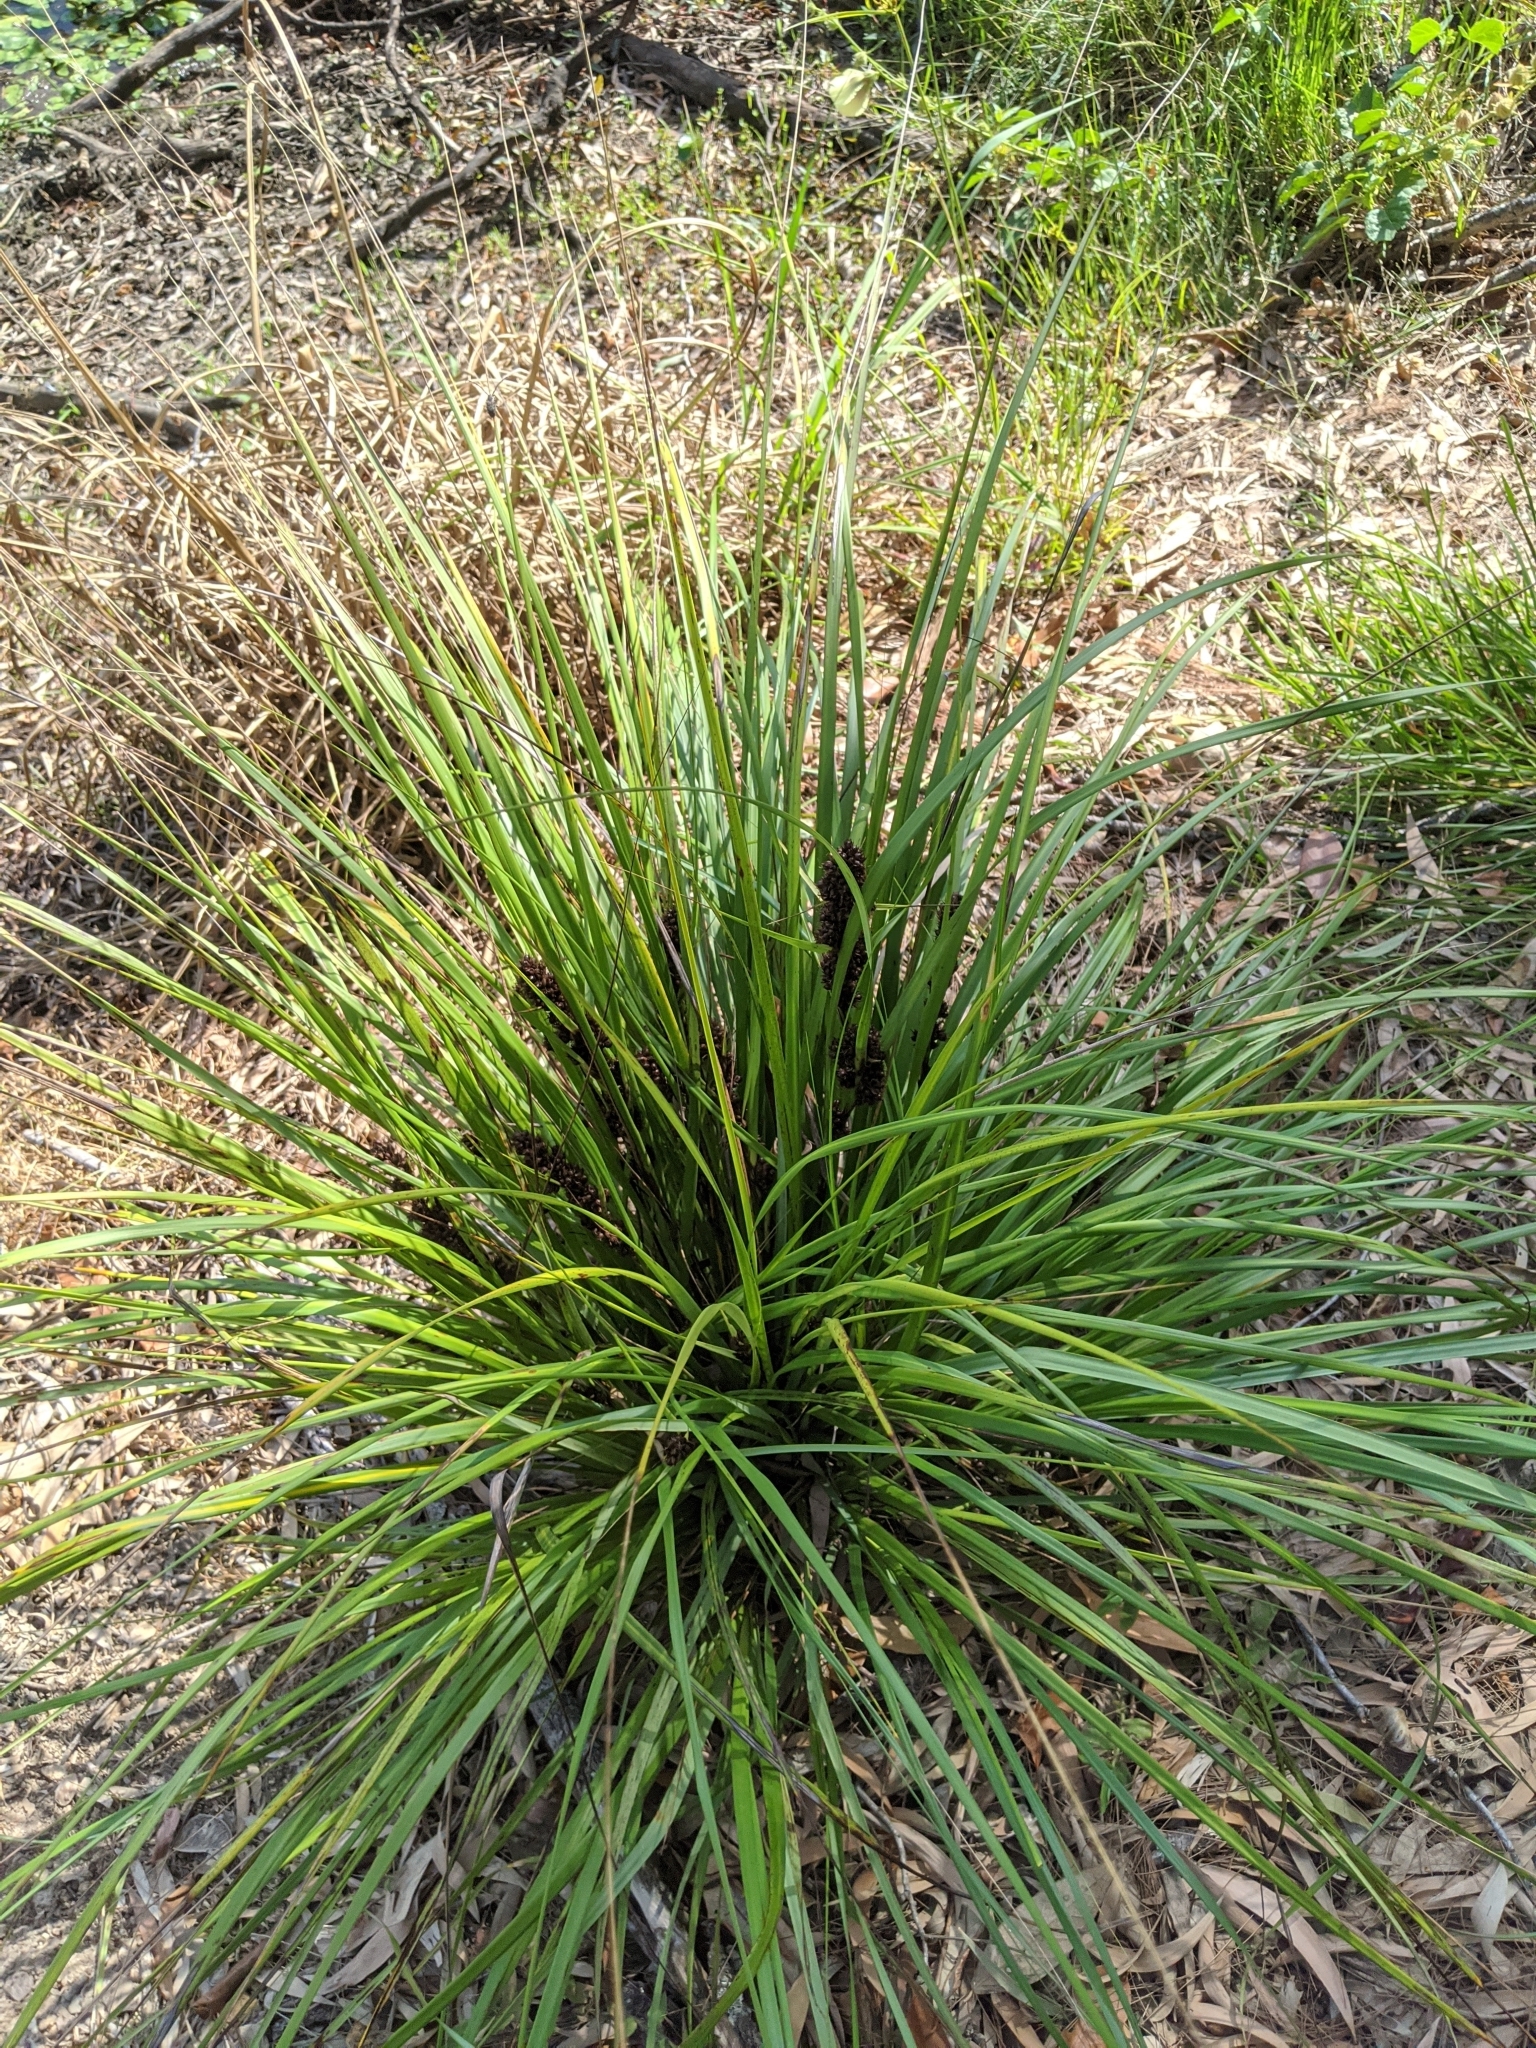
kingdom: Plantae
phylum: Tracheophyta
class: Liliopsida
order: Poales
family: Cyperaceae
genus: Gahnia
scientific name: Gahnia aspera
